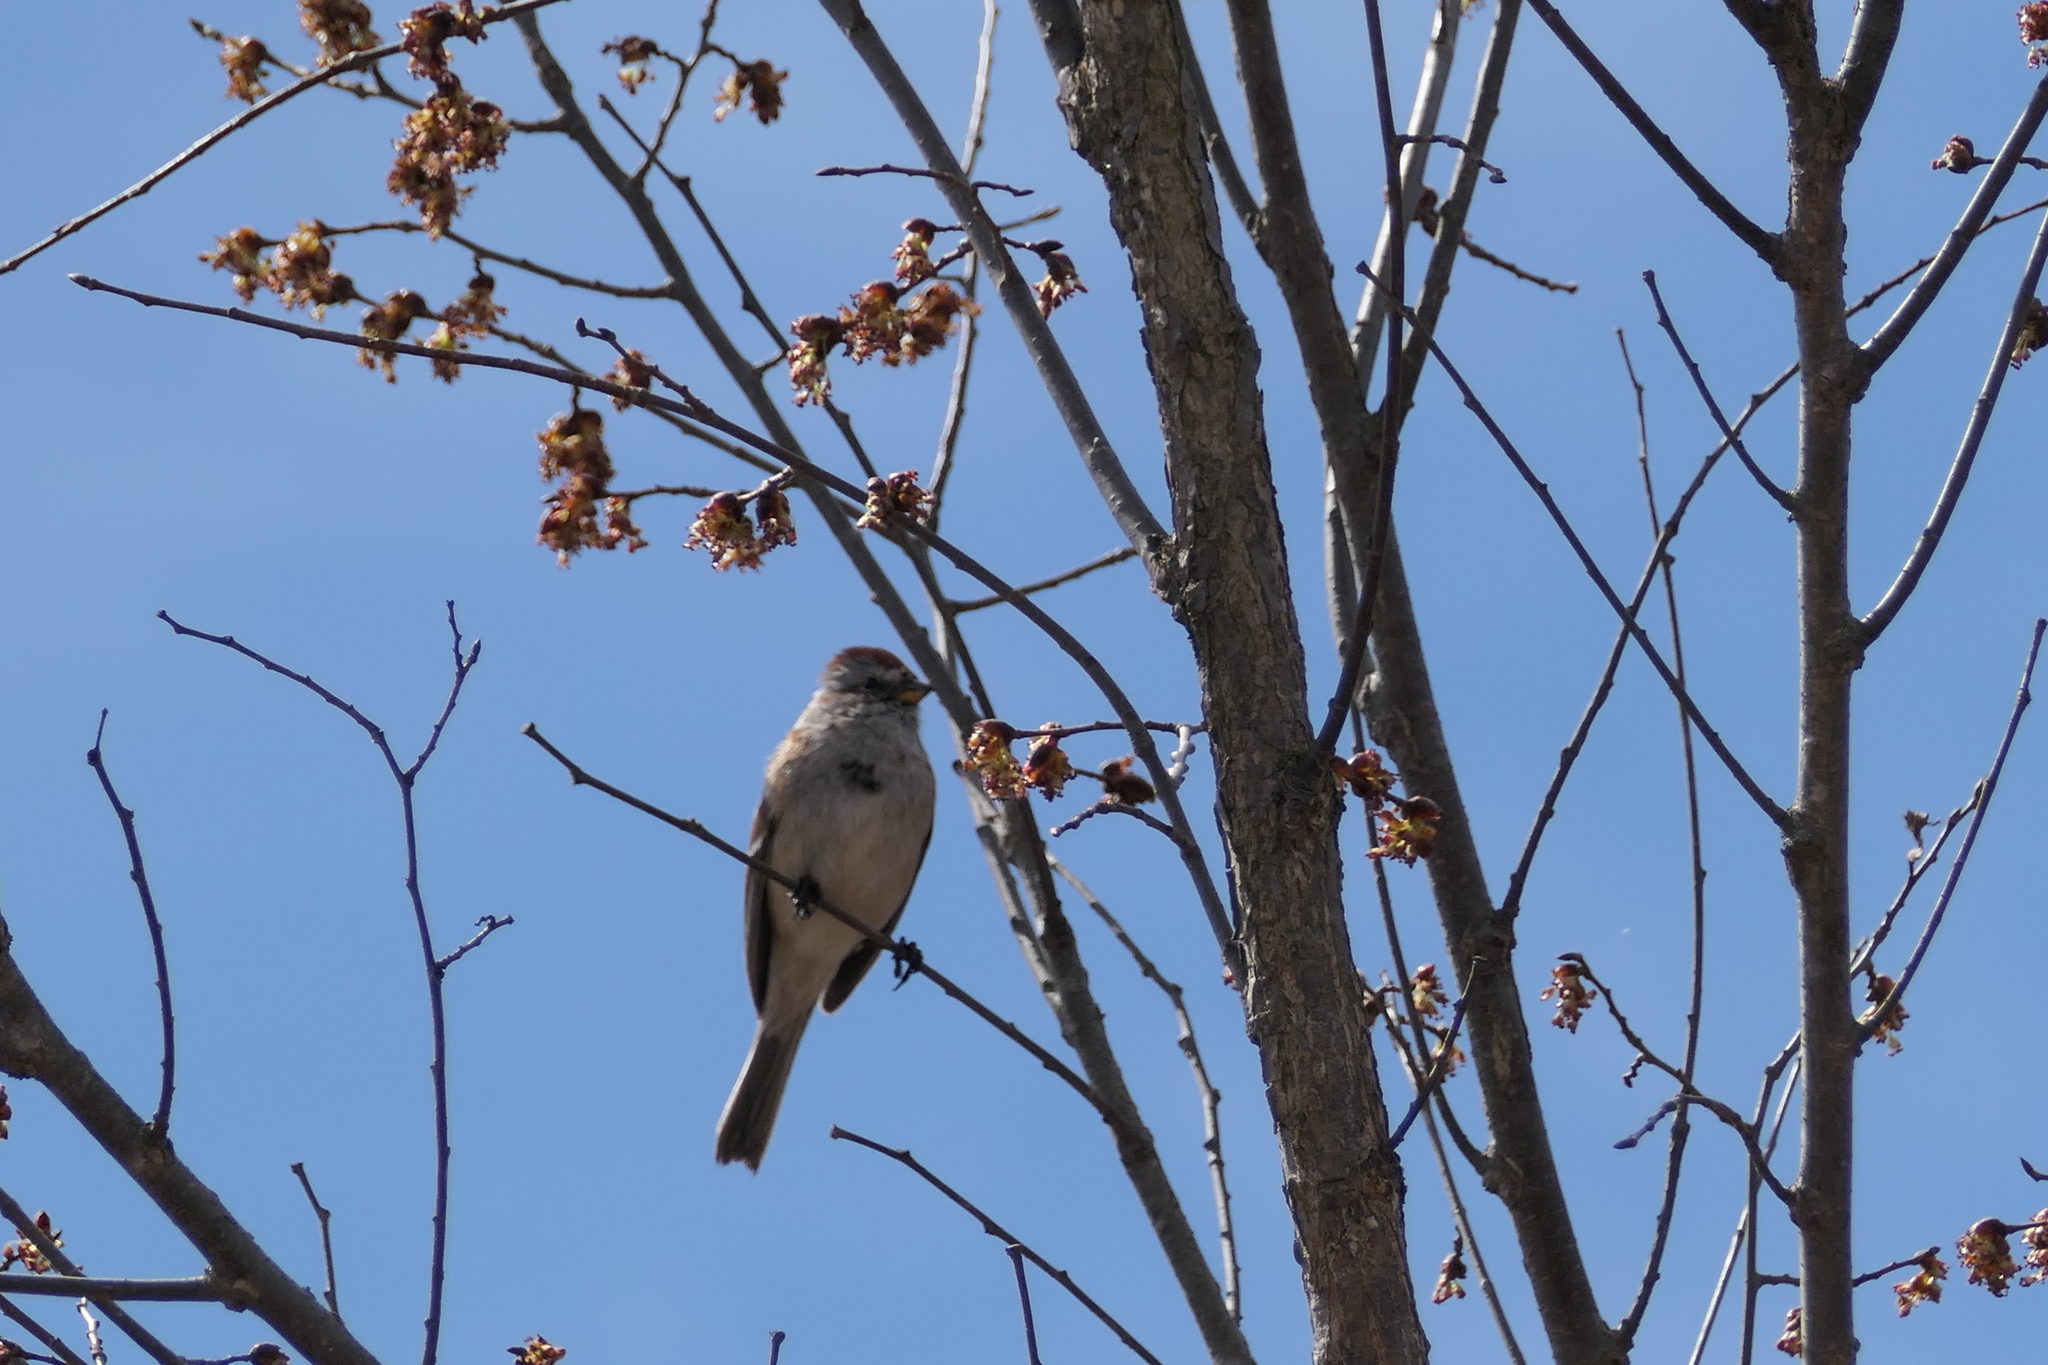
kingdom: Animalia
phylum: Chordata
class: Aves
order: Passeriformes
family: Passerellidae
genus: Spizelloides
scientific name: Spizelloides arborea
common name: American tree sparrow
